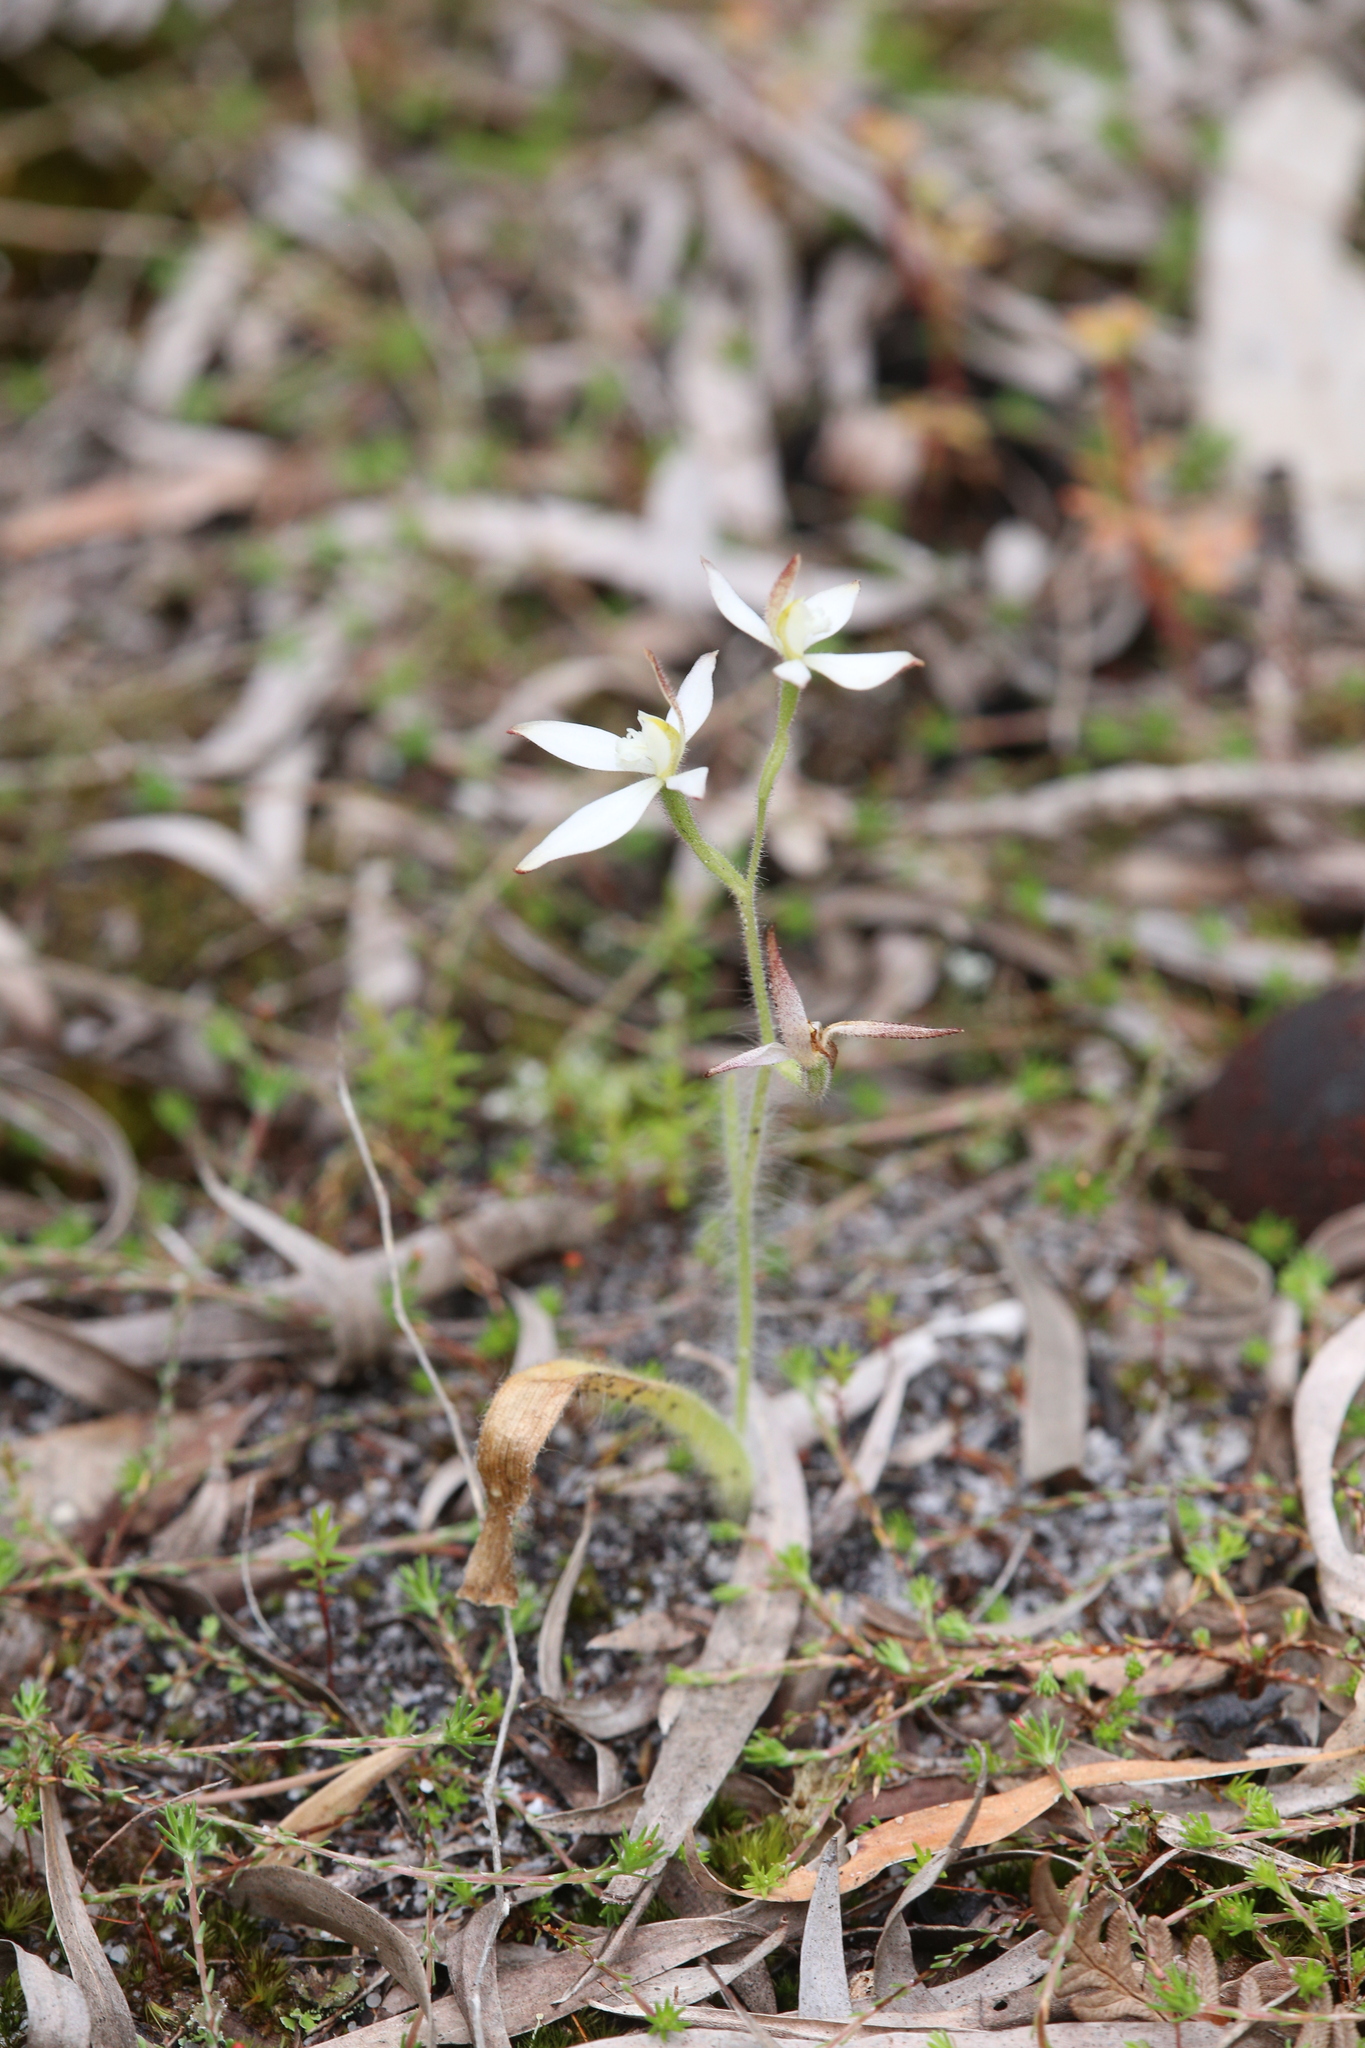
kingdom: Plantae
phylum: Tracheophyta
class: Liliopsida
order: Asparagales
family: Orchidaceae
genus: Caladenia
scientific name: Caladenia marginata
